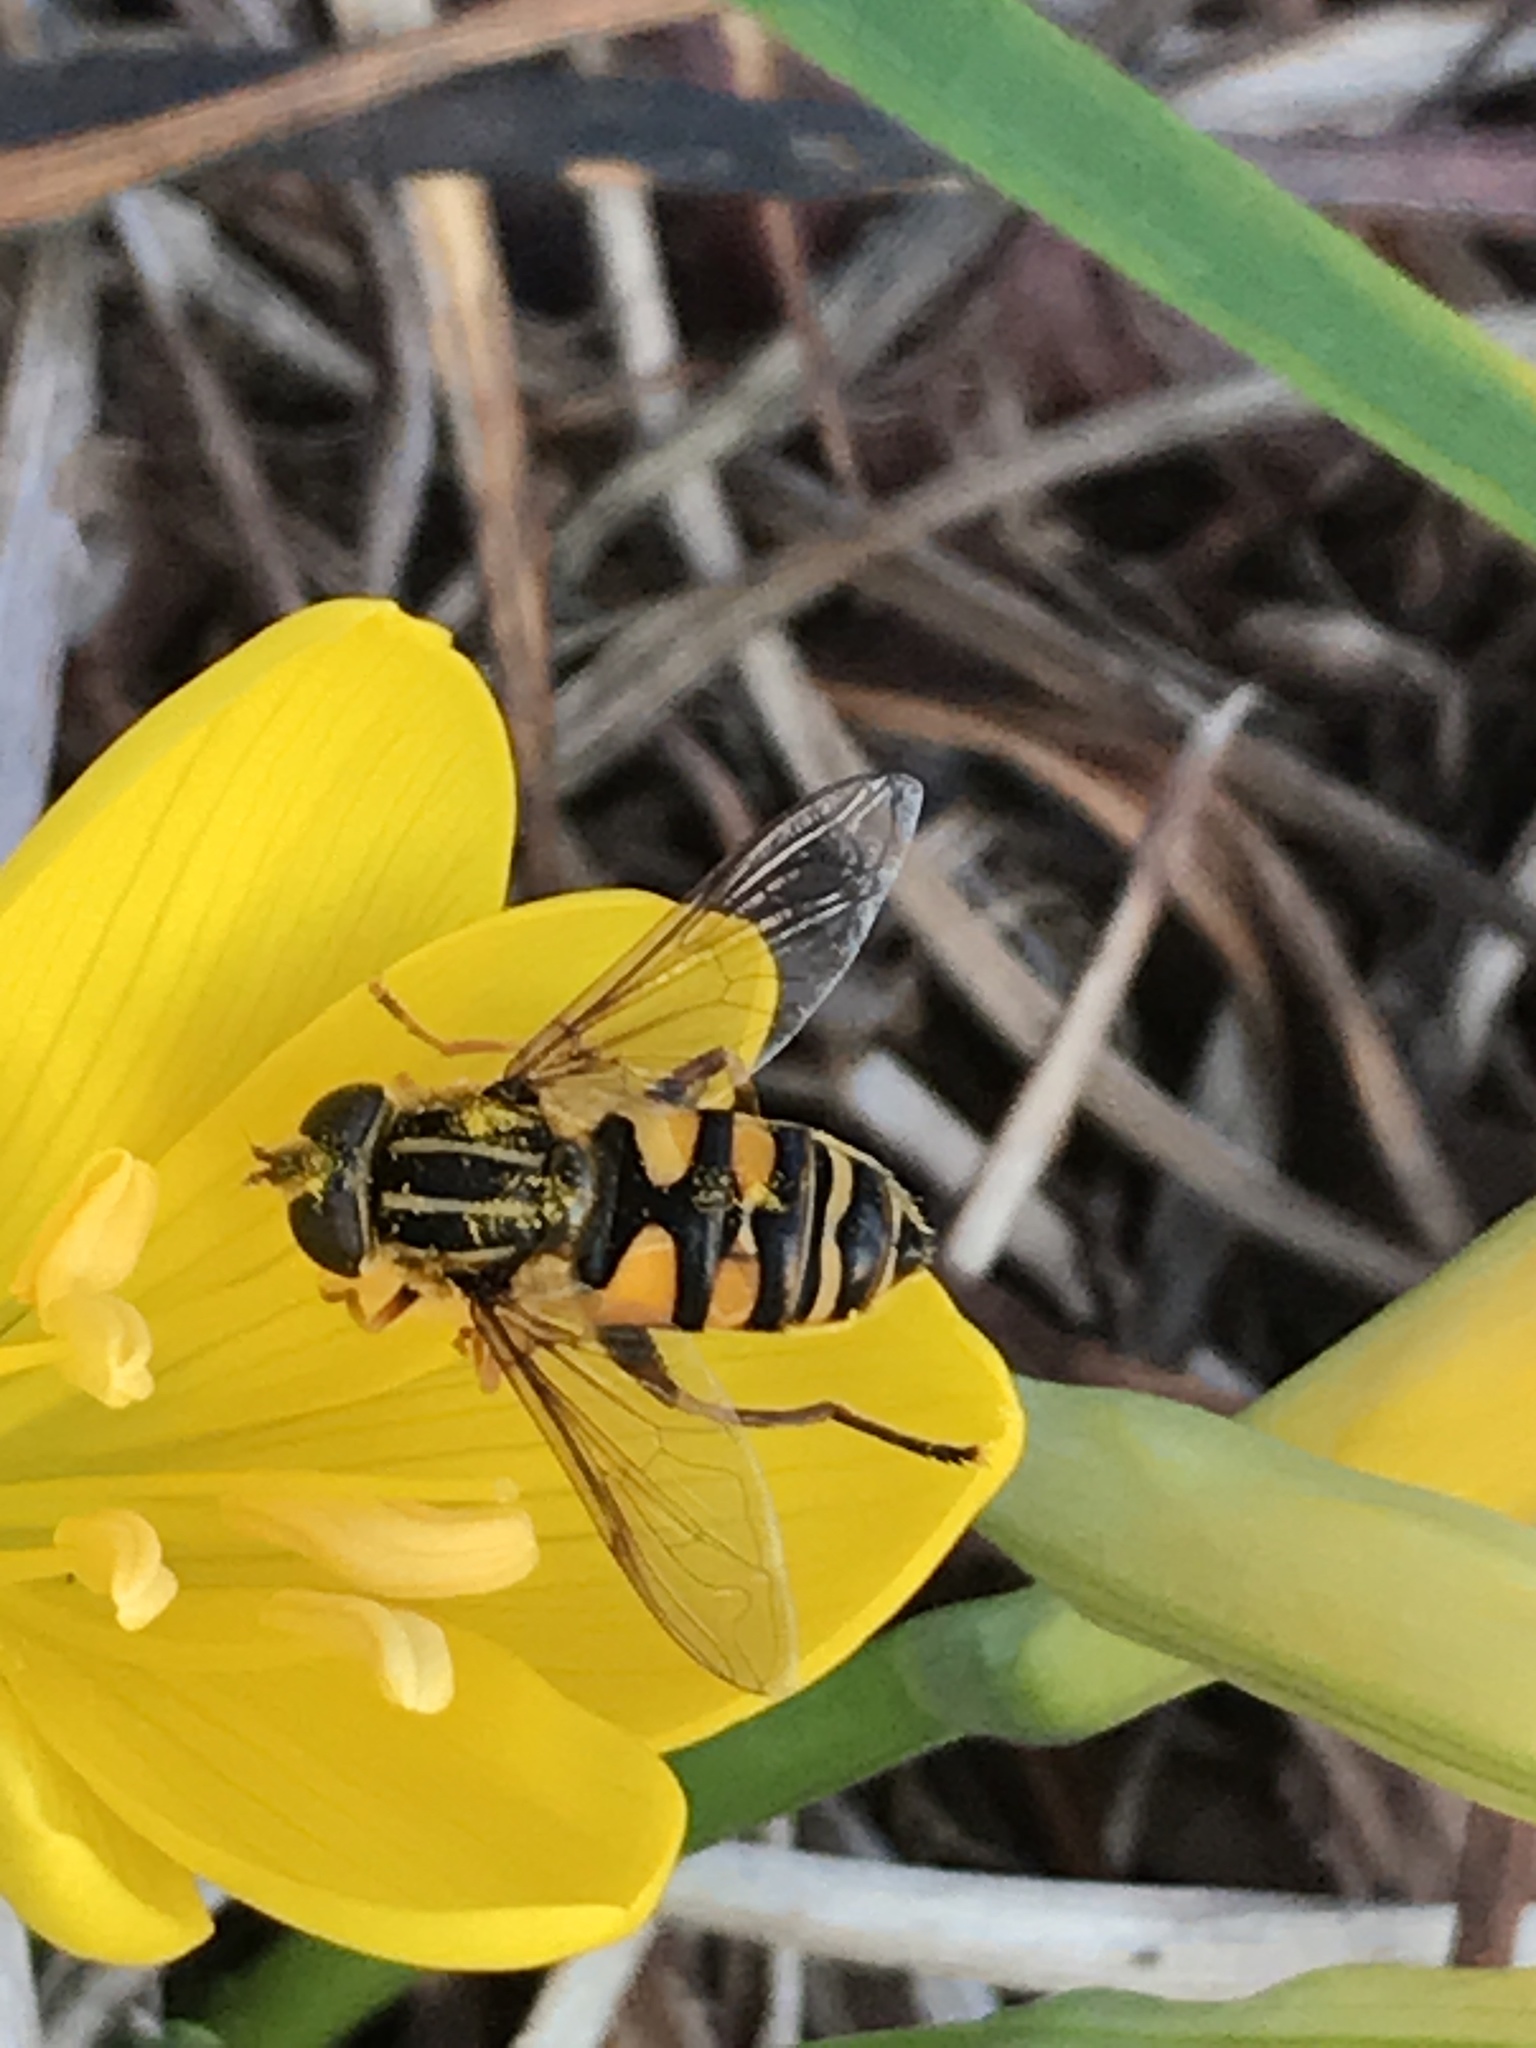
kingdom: Animalia
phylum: Arthropoda
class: Insecta
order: Diptera
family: Syrphidae
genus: Helophilus
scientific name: Helophilus fasciatus
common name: Narrow-headed marsh fly
